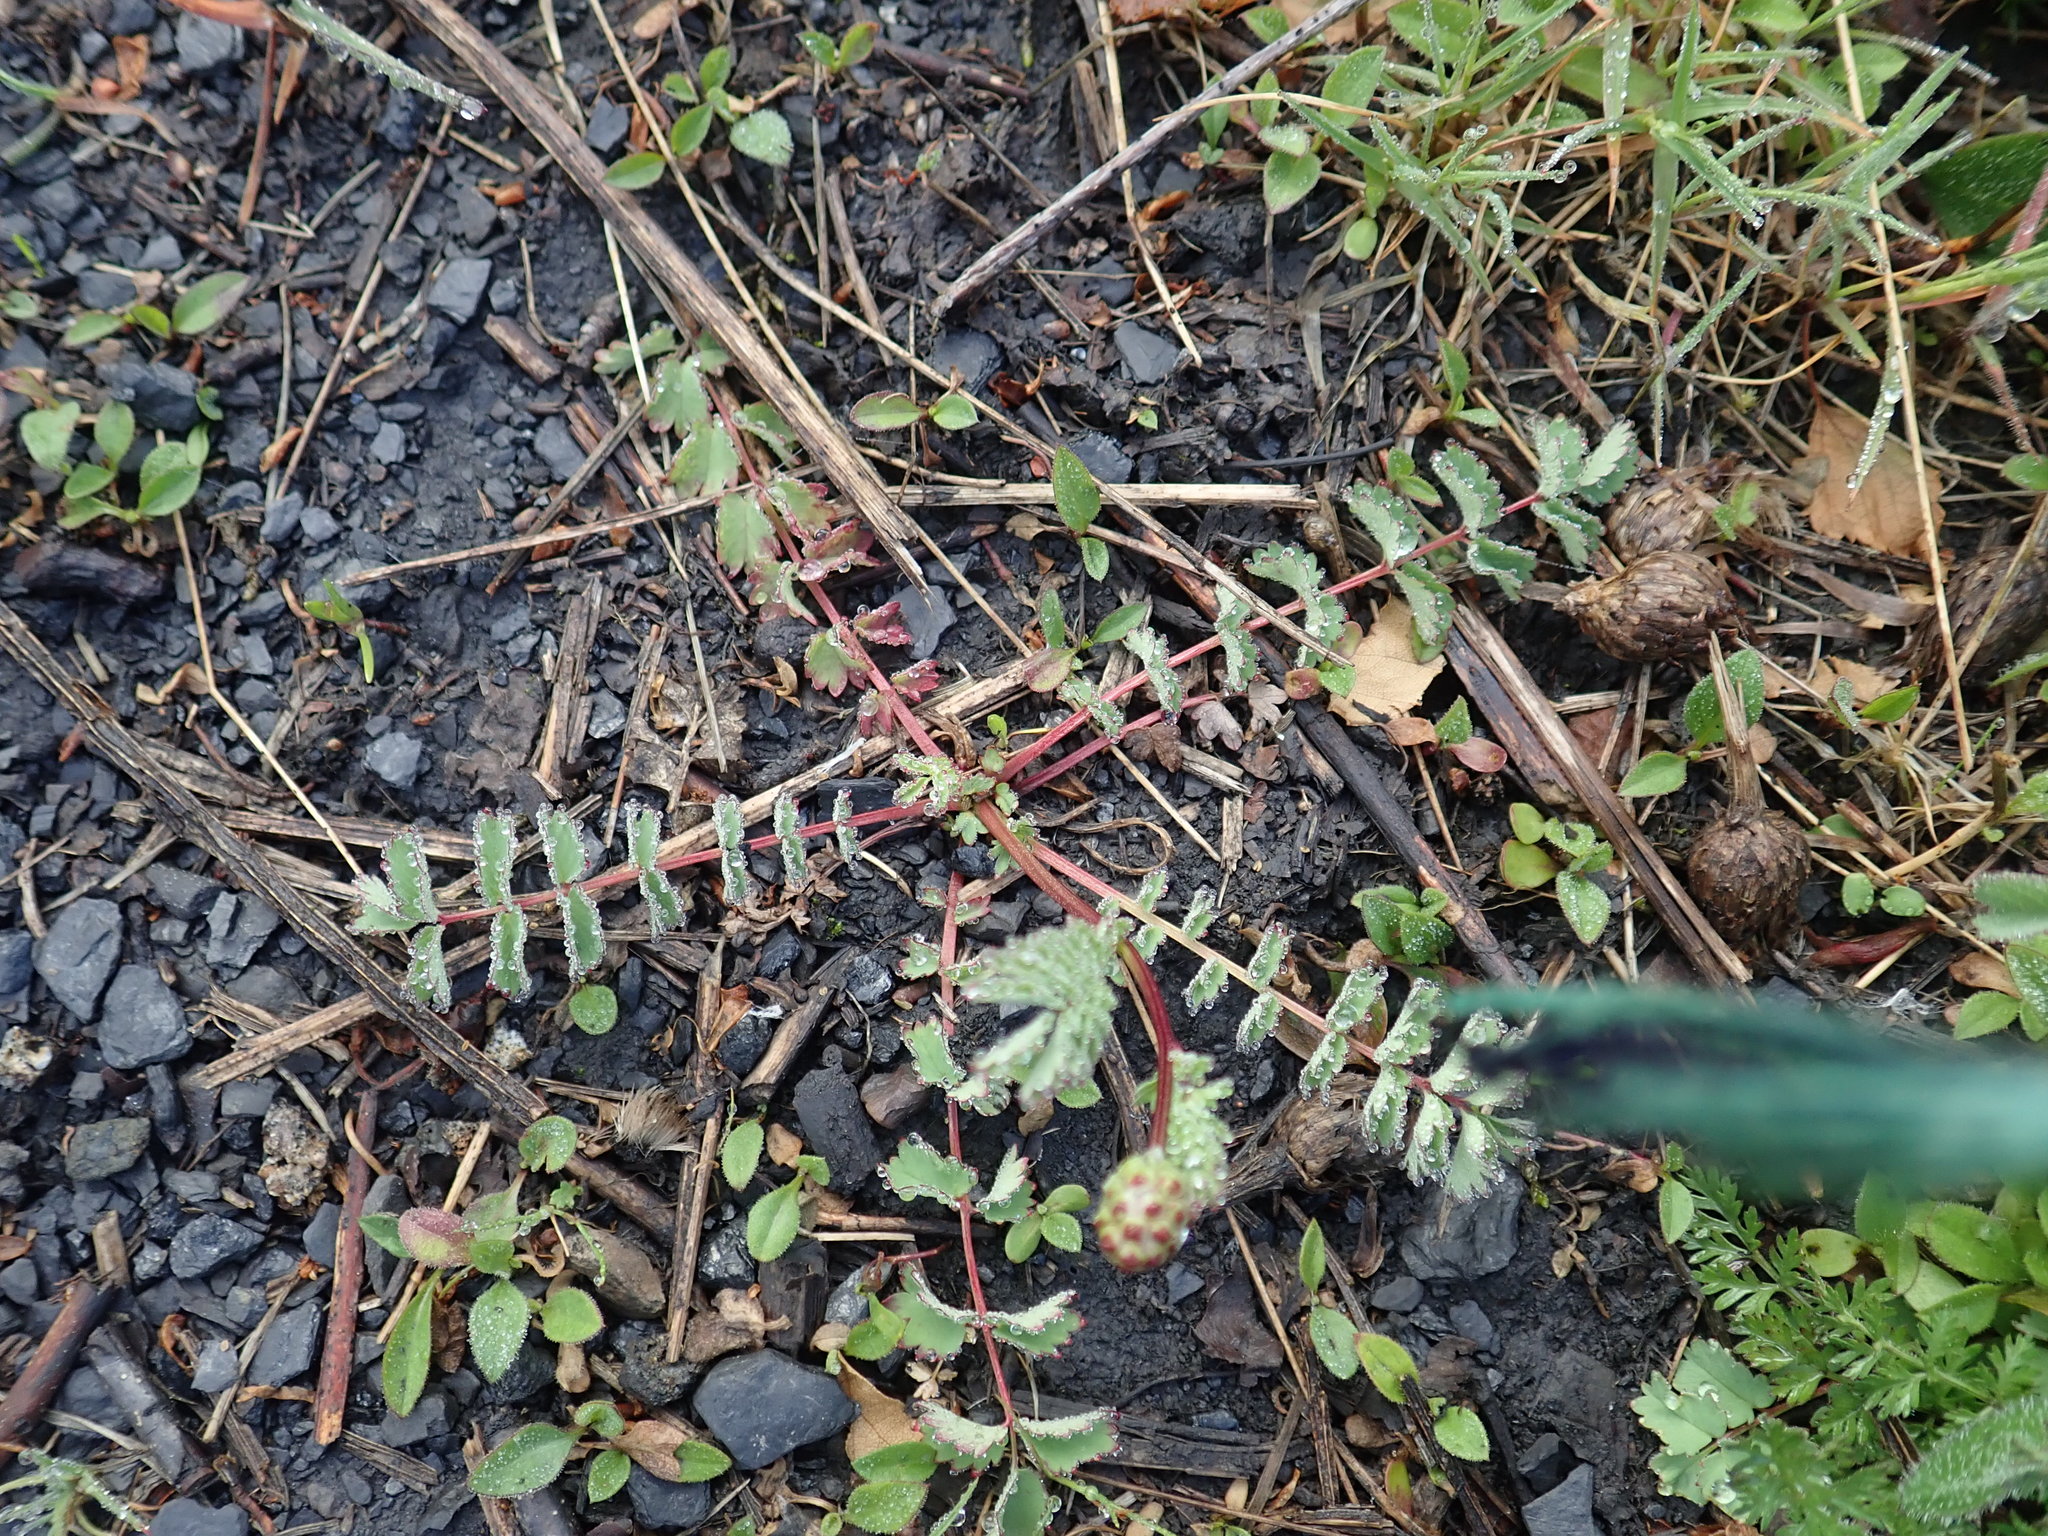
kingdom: Plantae
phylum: Tracheophyta
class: Magnoliopsida
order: Rosales
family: Rosaceae
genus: Poterium
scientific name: Poterium sanguisorba
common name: Salad burnet
